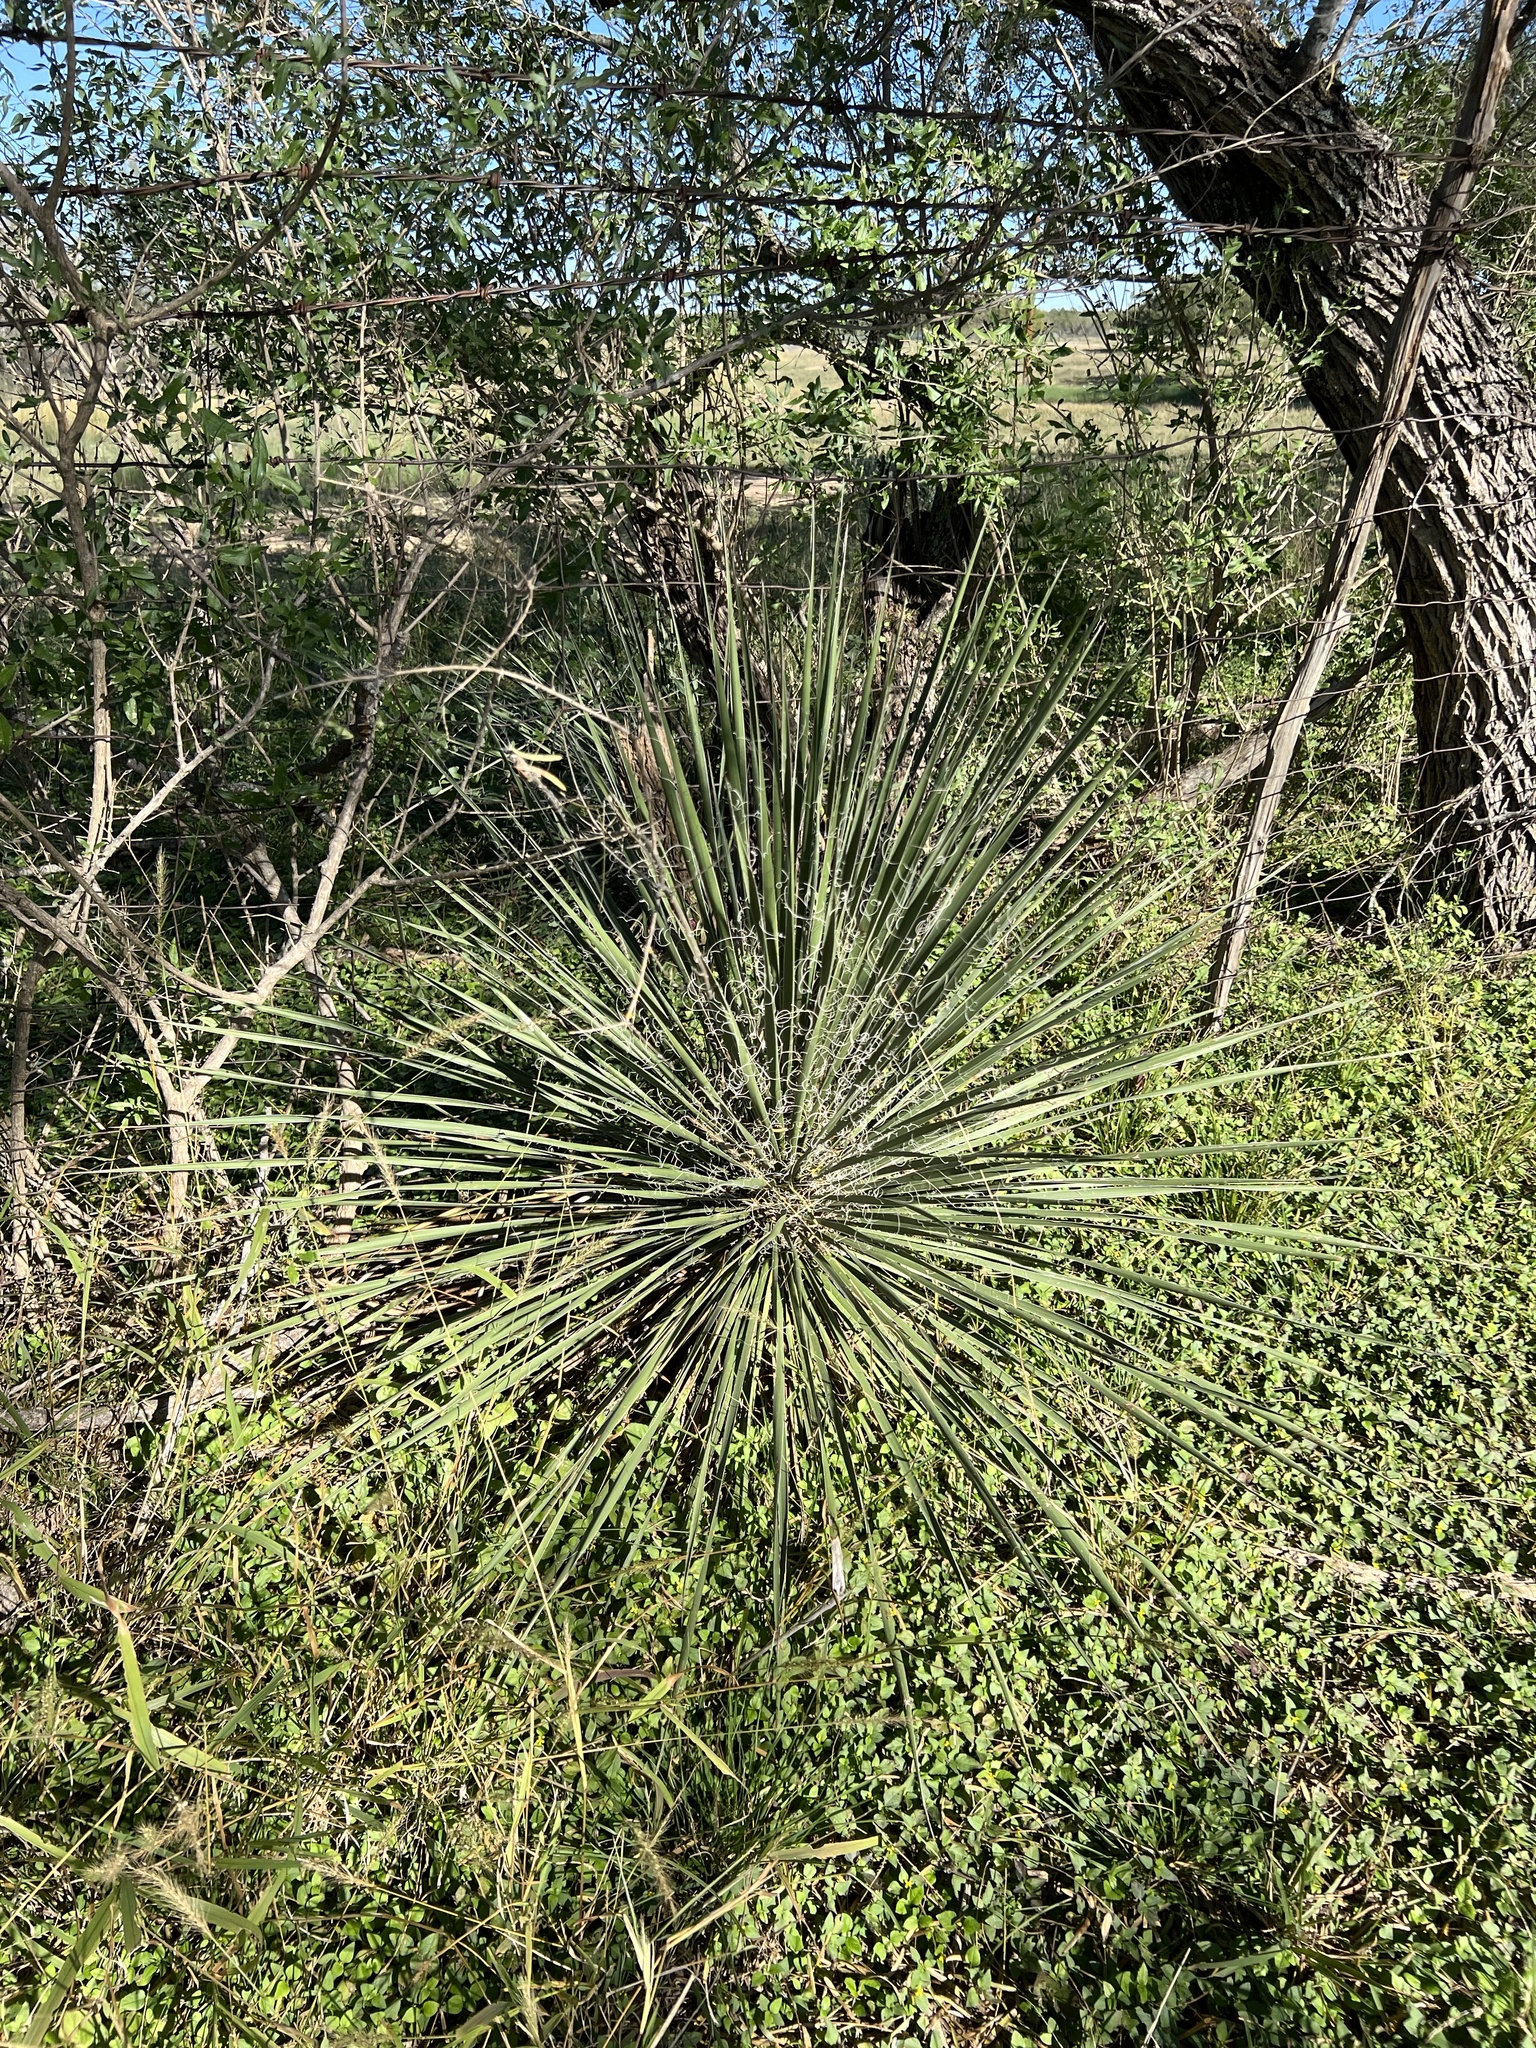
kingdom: Plantae
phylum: Tracheophyta
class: Liliopsida
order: Asparagales
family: Asparagaceae
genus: Yucca
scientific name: Yucca constricta
